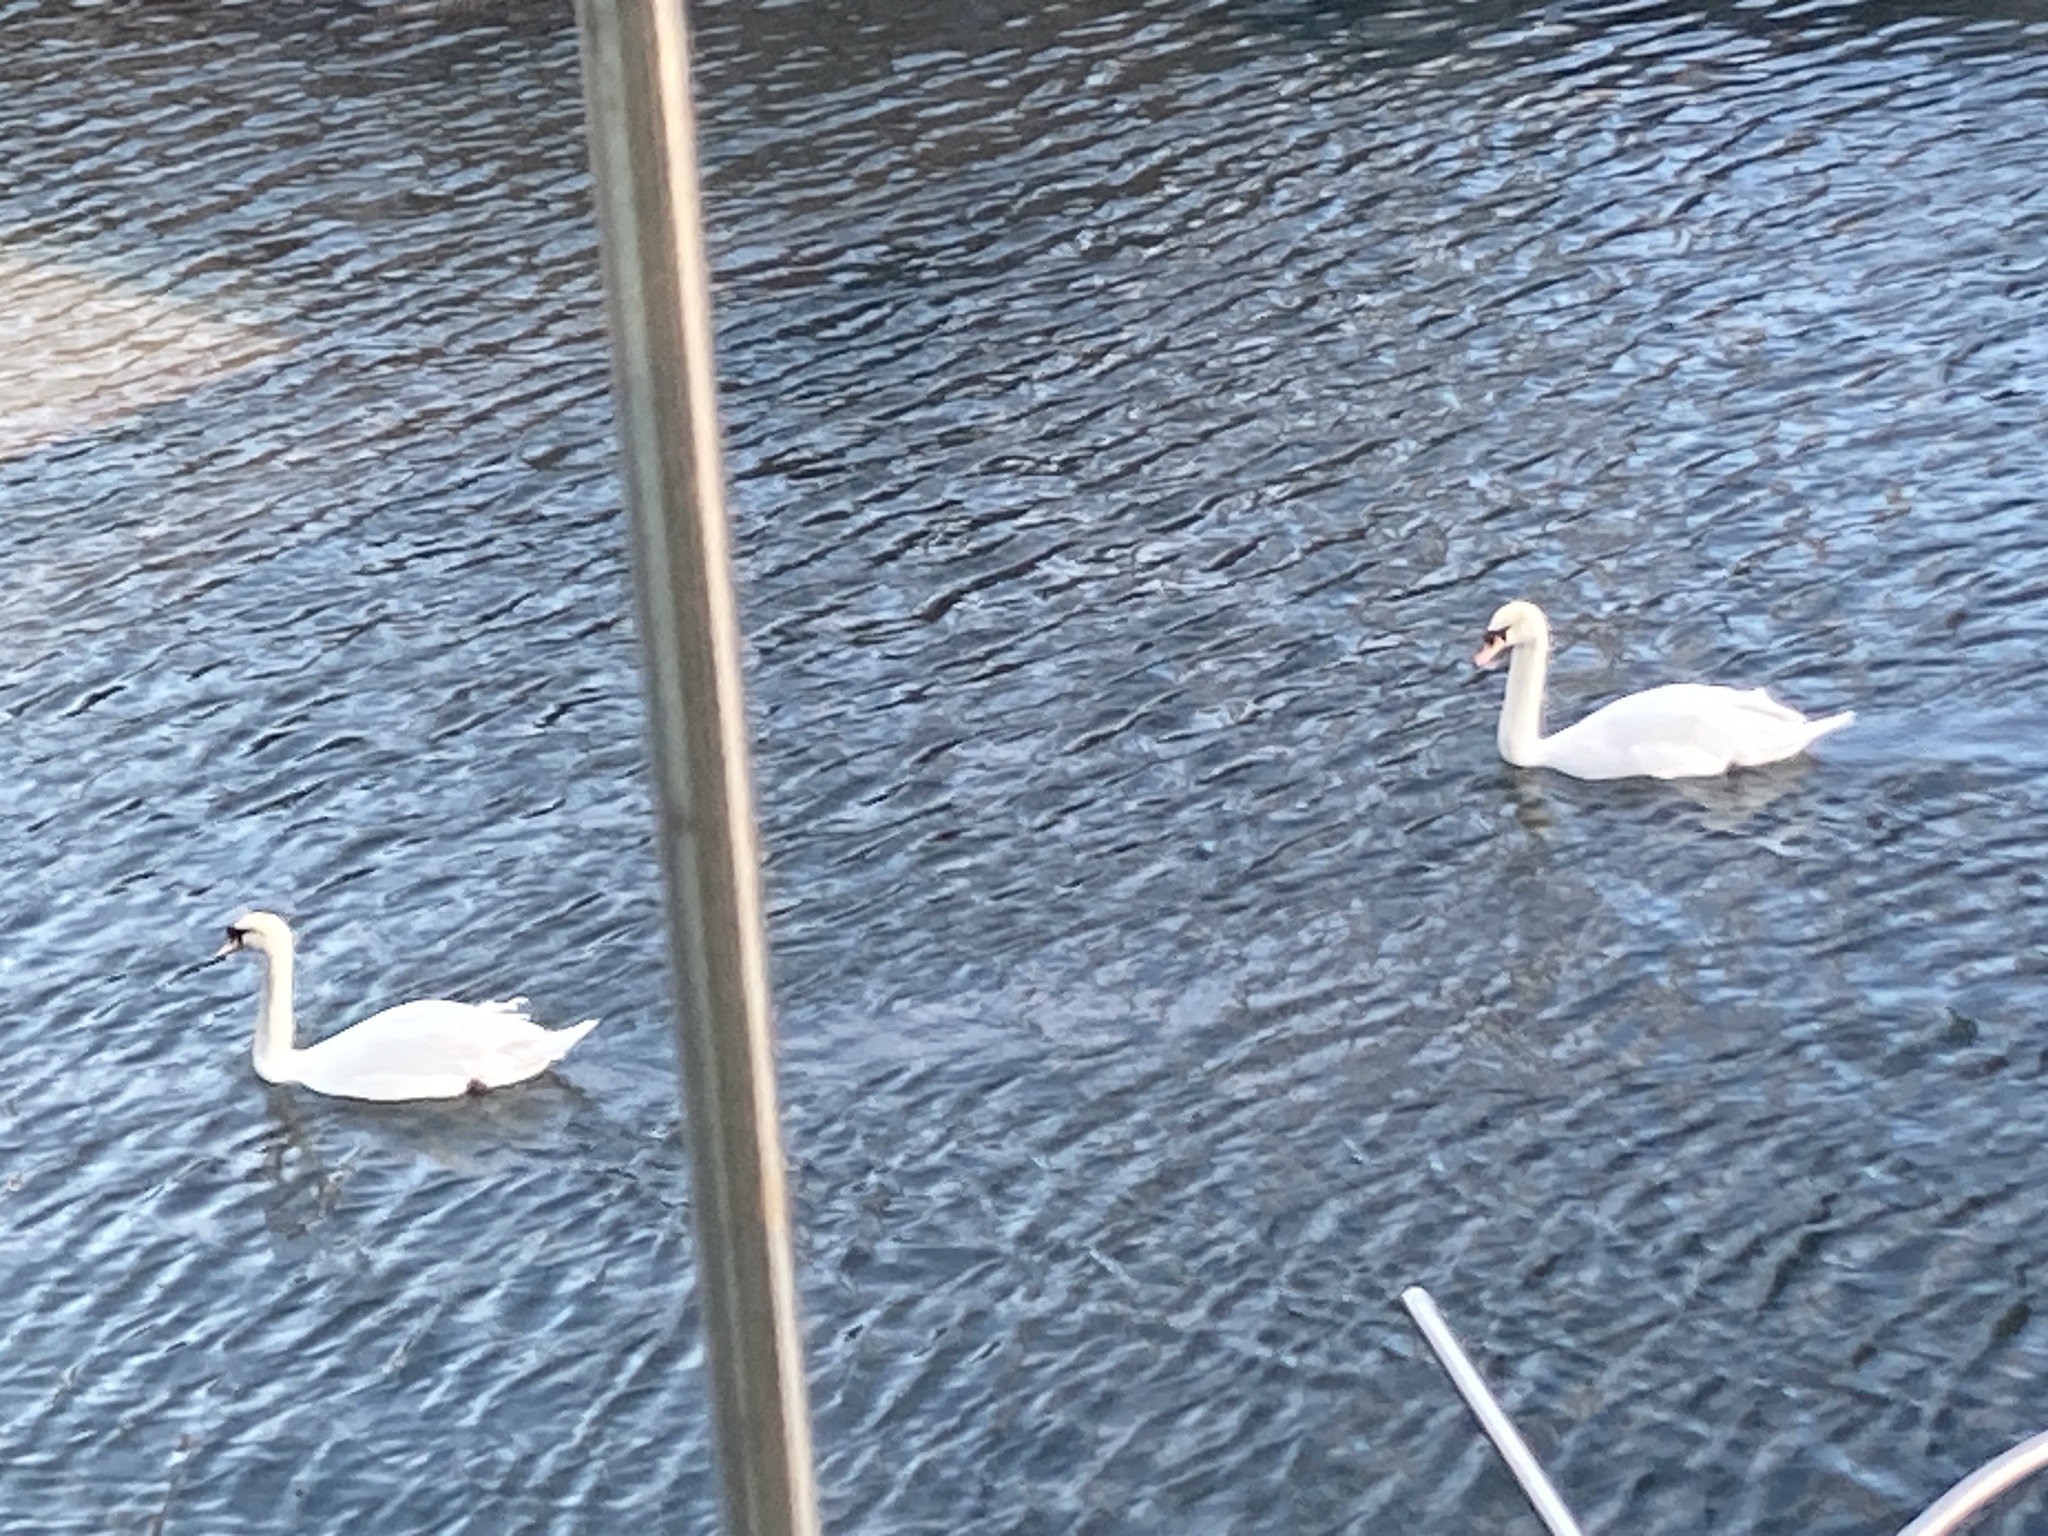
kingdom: Animalia
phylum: Chordata
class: Aves
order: Anseriformes
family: Anatidae
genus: Cygnus
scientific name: Cygnus olor
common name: Mute swan
